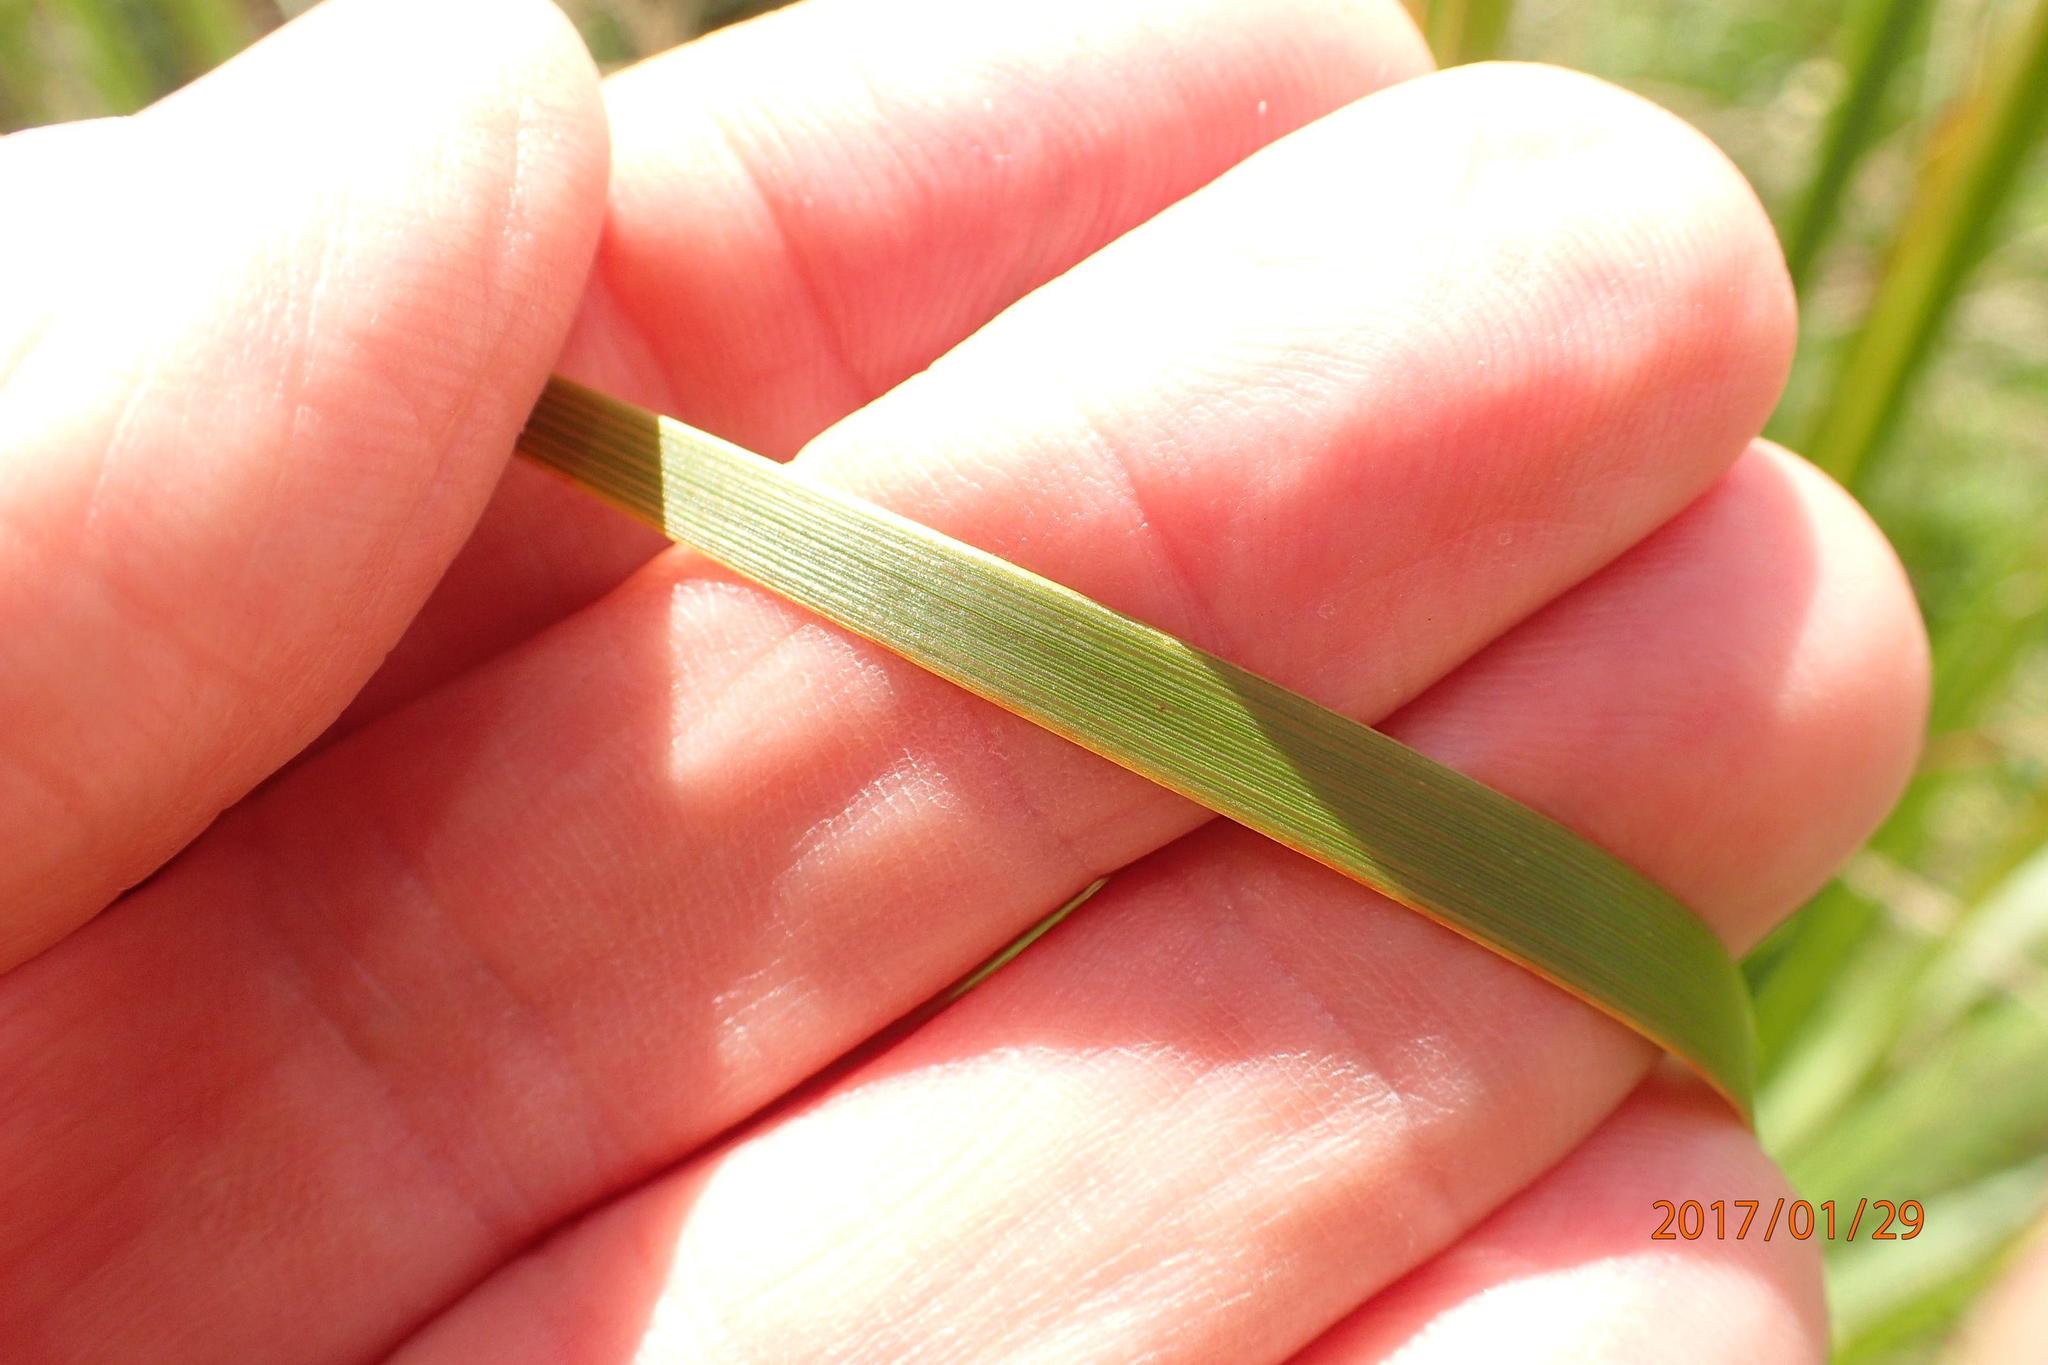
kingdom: Plantae
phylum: Tracheophyta
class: Liliopsida
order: Asparagales
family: Iridaceae
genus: Dierama
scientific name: Dierama latifolium
